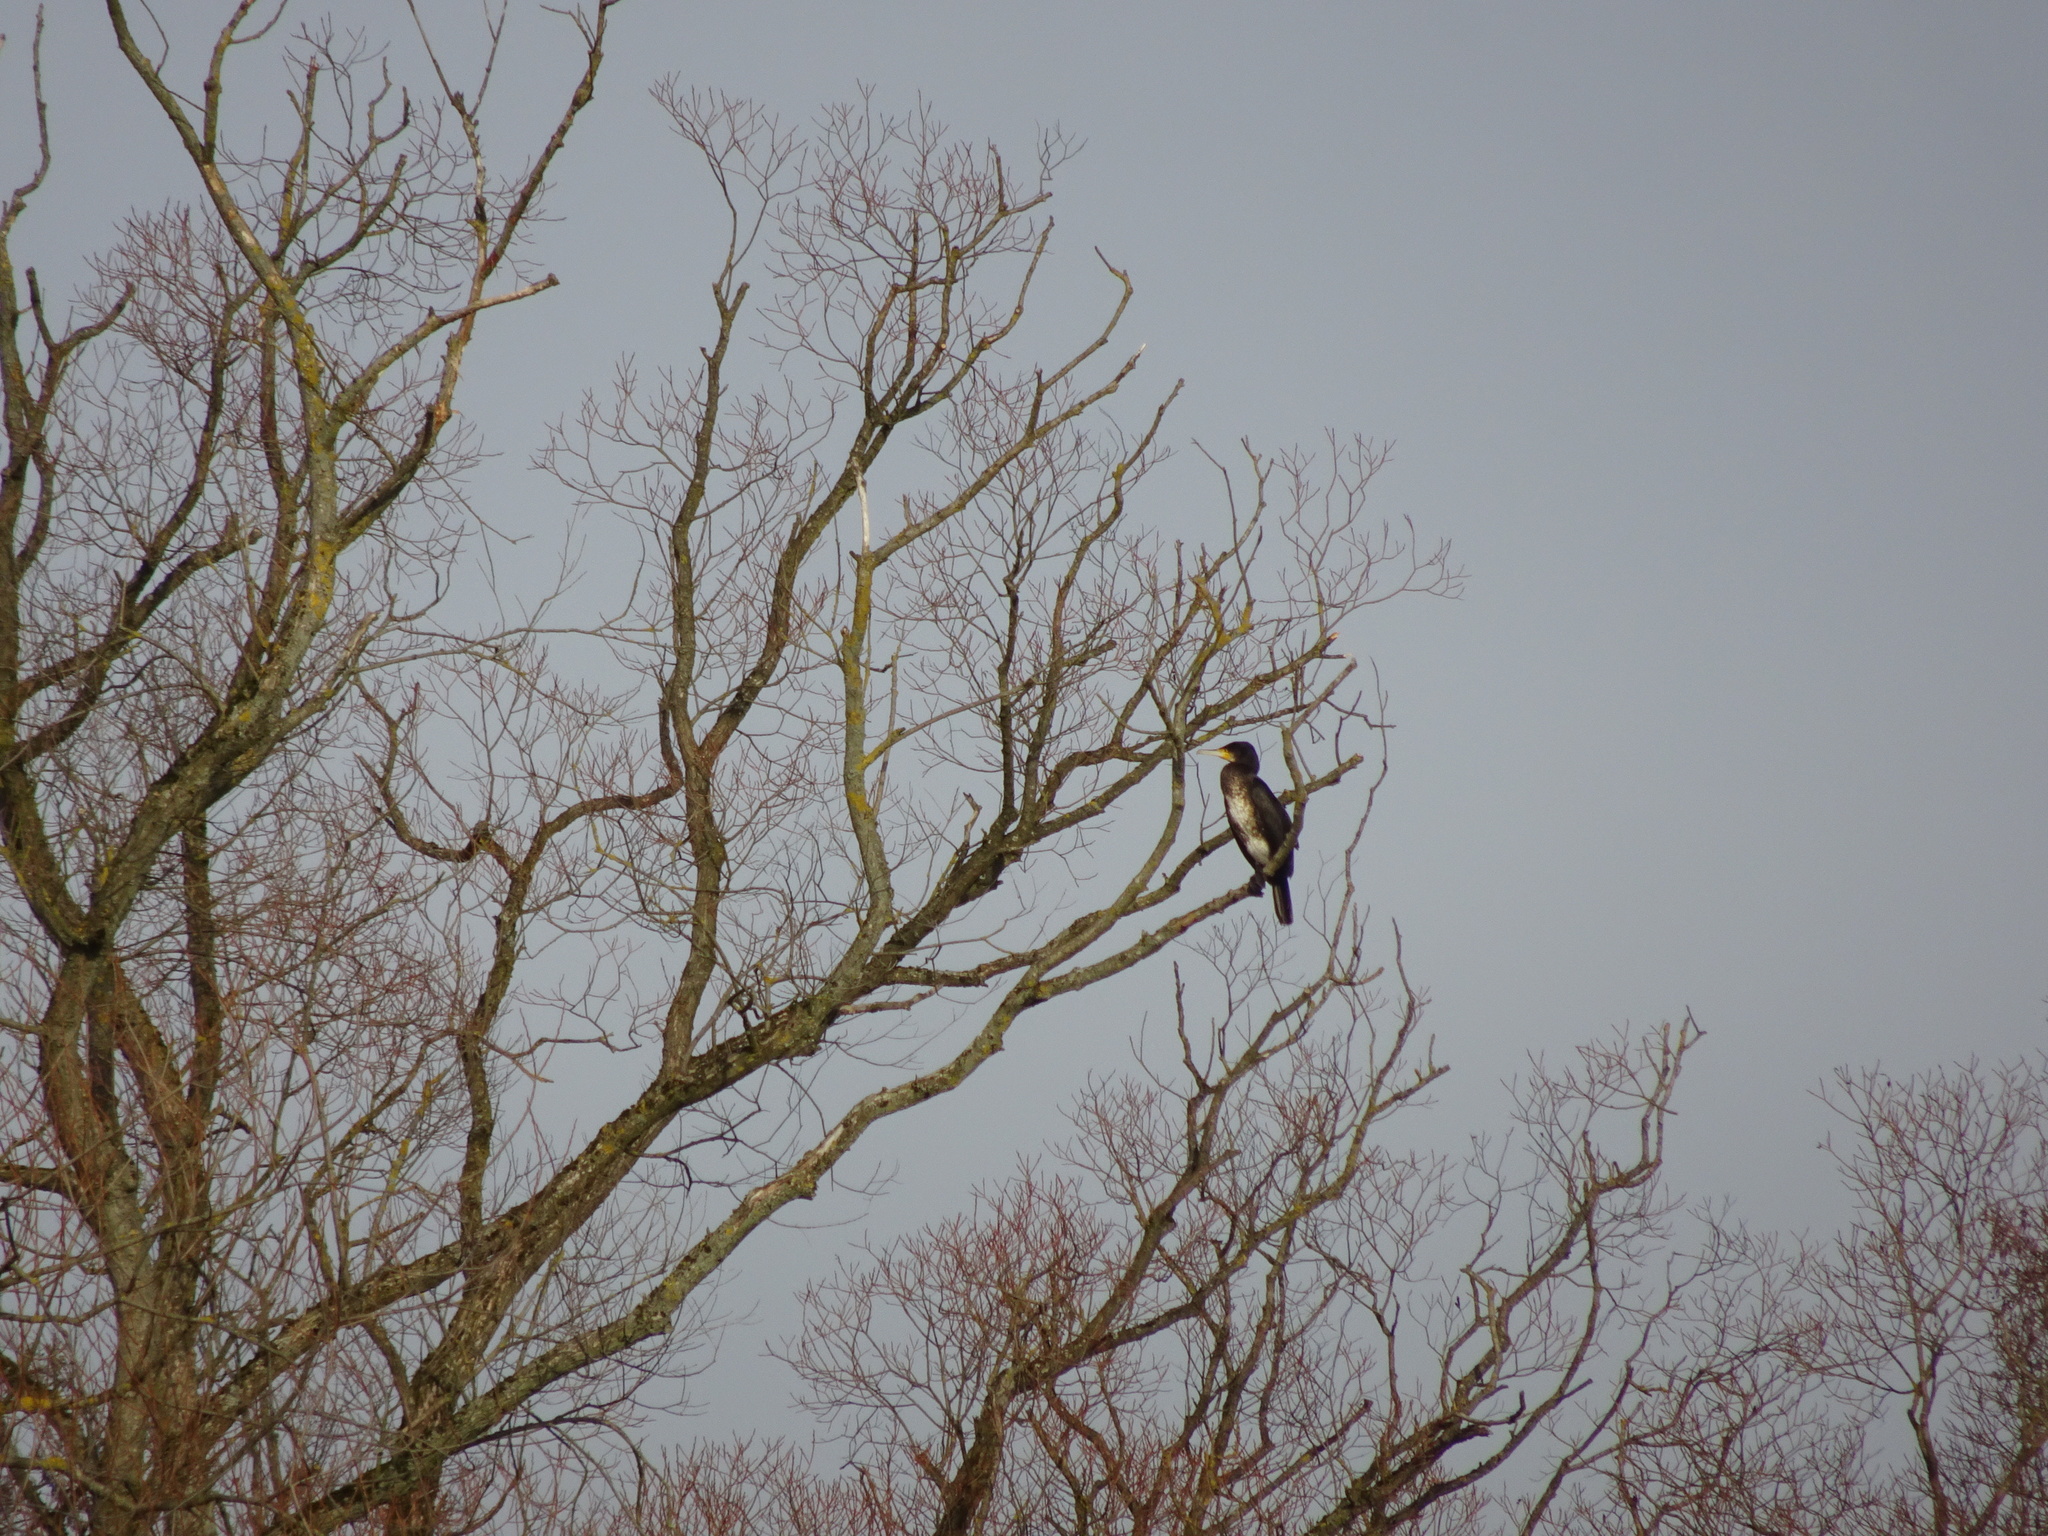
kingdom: Animalia
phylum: Chordata
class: Aves
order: Suliformes
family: Phalacrocoracidae
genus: Phalacrocorax
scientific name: Phalacrocorax carbo
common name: Great cormorant
